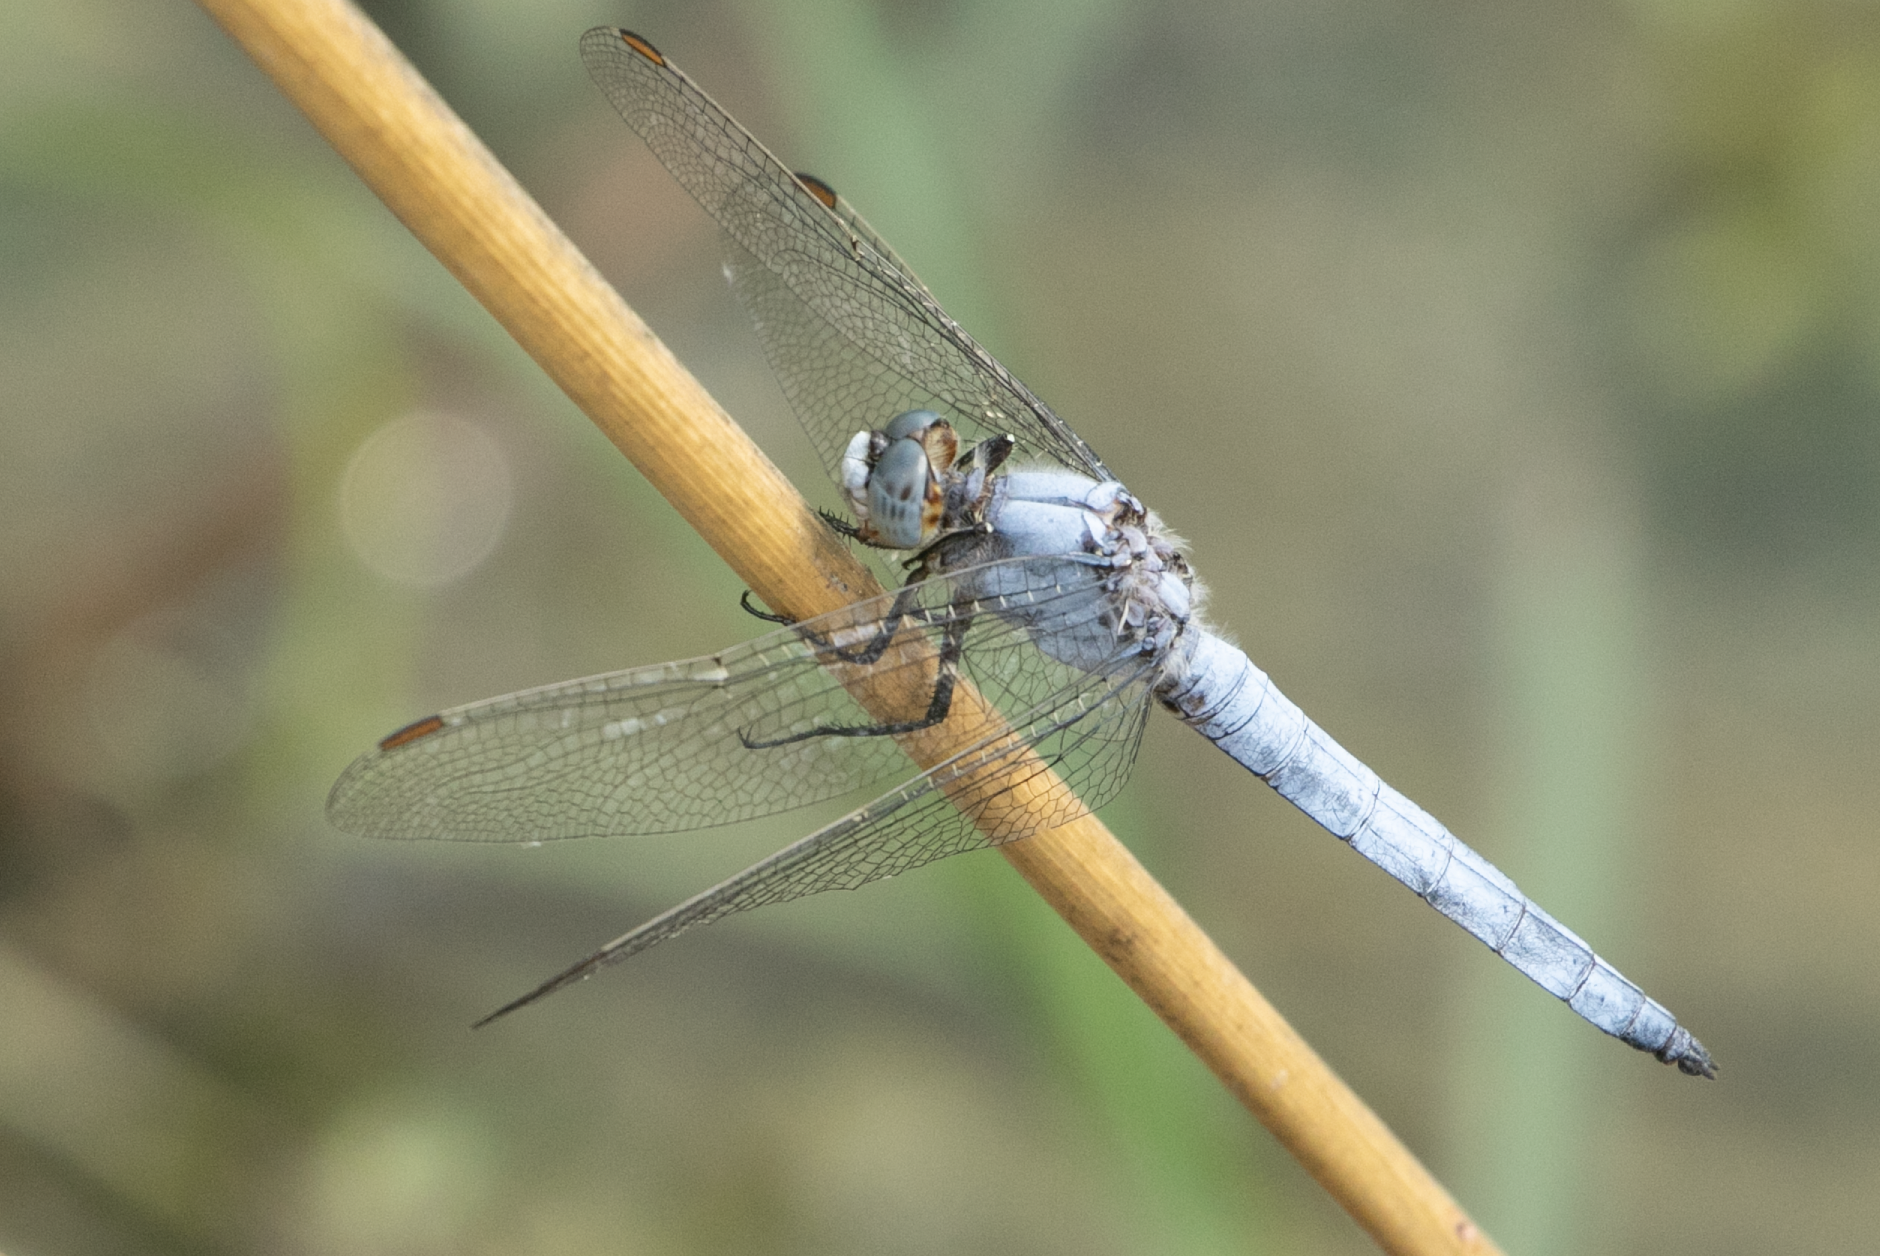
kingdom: Animalia
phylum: Arthropoda
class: Insecta
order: Odonata
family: Libellulidae
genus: Orthetrum
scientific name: Orthetrum brunneum
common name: Southern skimmer
